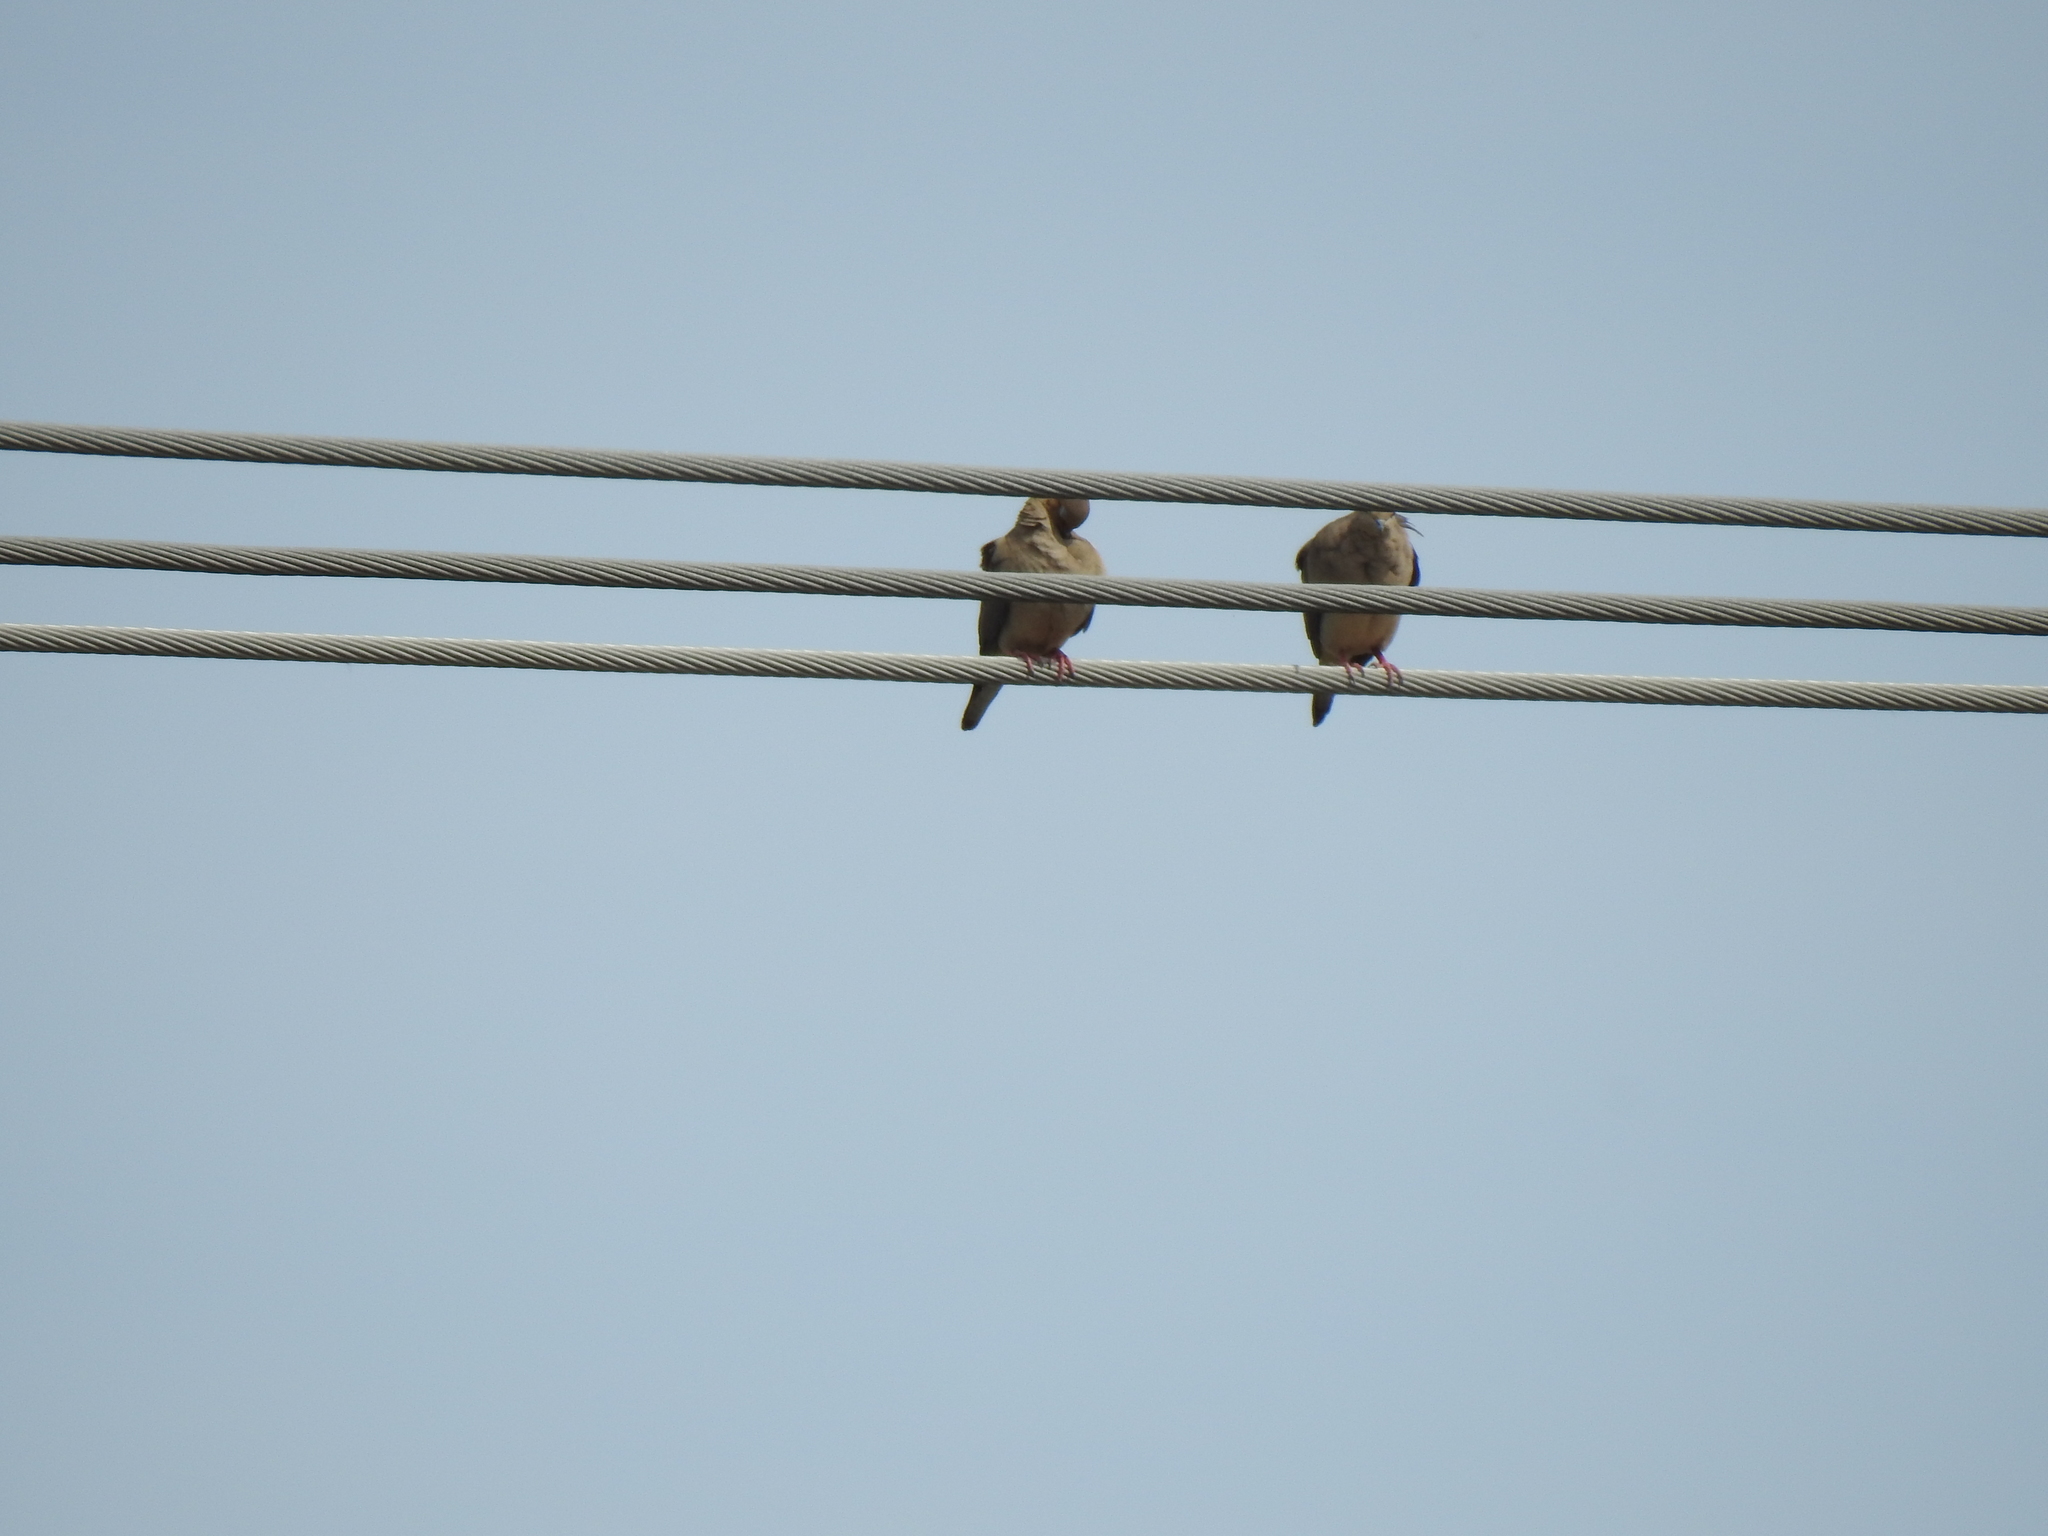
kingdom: Animalia
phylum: Chordata
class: Aves
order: Columbiformes
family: Columbidae
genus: Zenaida
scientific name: Zenaida macroura
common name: Mourning dove
